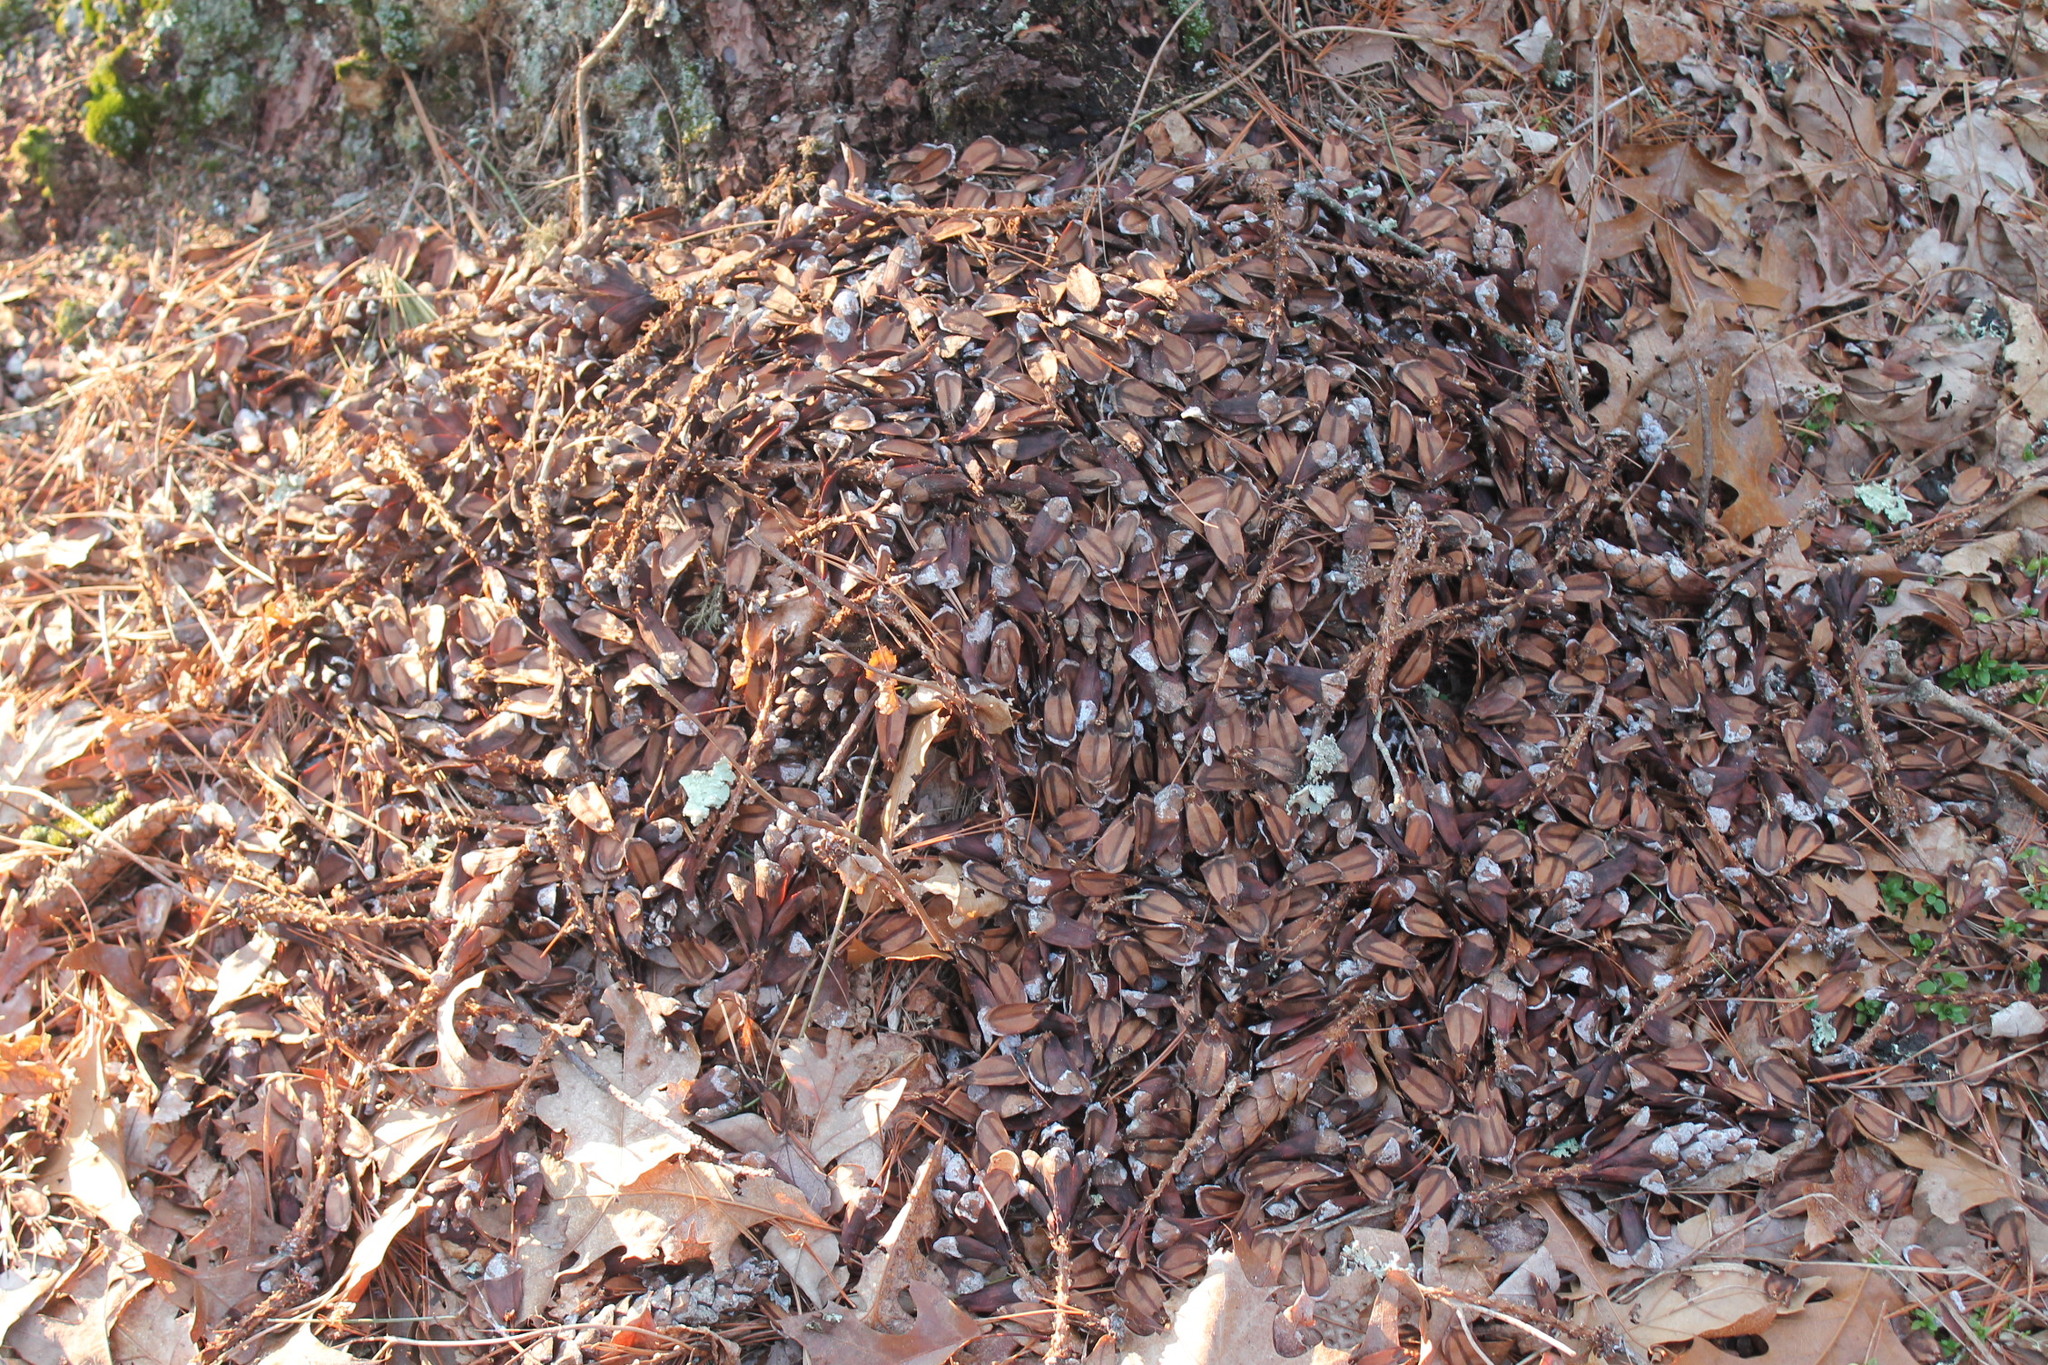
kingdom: Animalia
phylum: Chordata
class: Mammalia
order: Rodentia
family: Sciuridae
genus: Tamiasciurus
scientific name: Tamiasciurus hudsonicus
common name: Red squirrel
